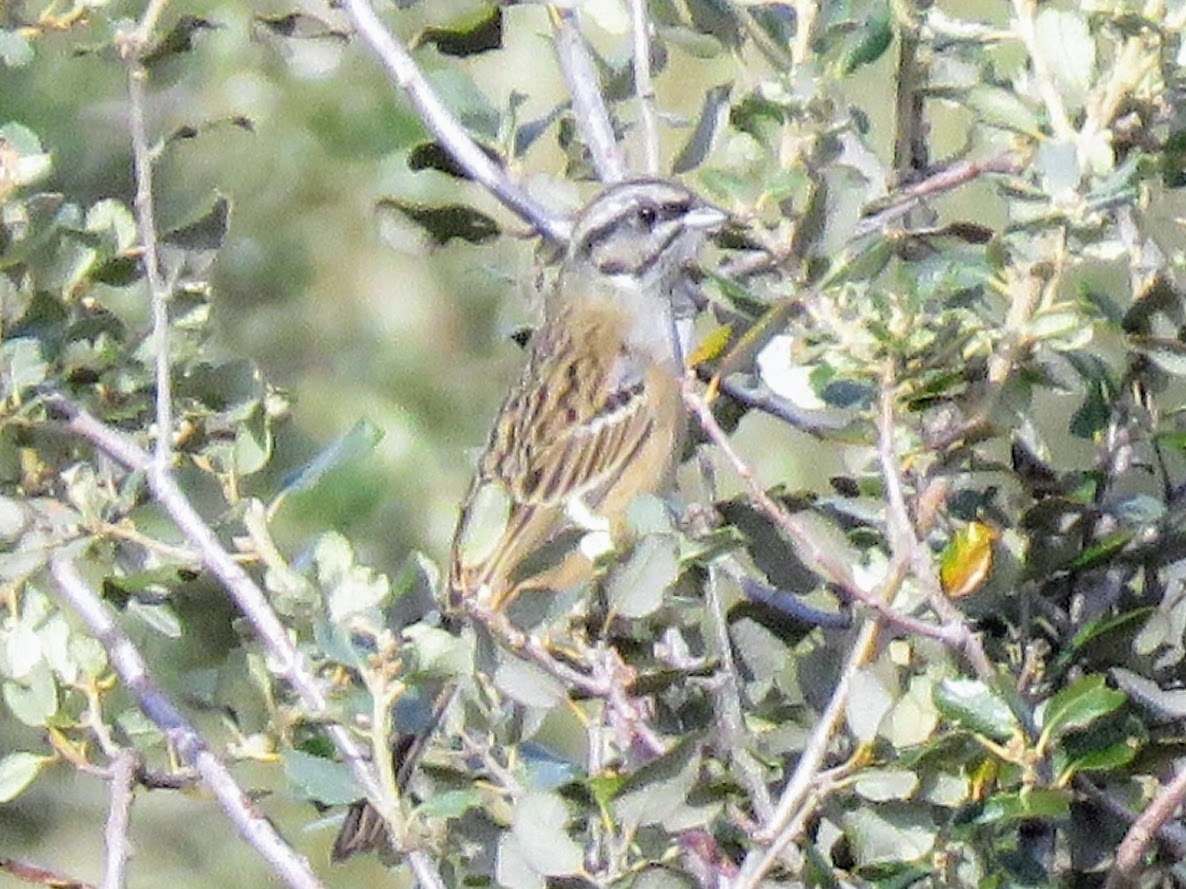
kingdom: Animalia
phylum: Chordata
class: Aves
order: Passeriformes
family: Emberizidae
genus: Emberiza
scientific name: Emberiza cia
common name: Rock bunting
